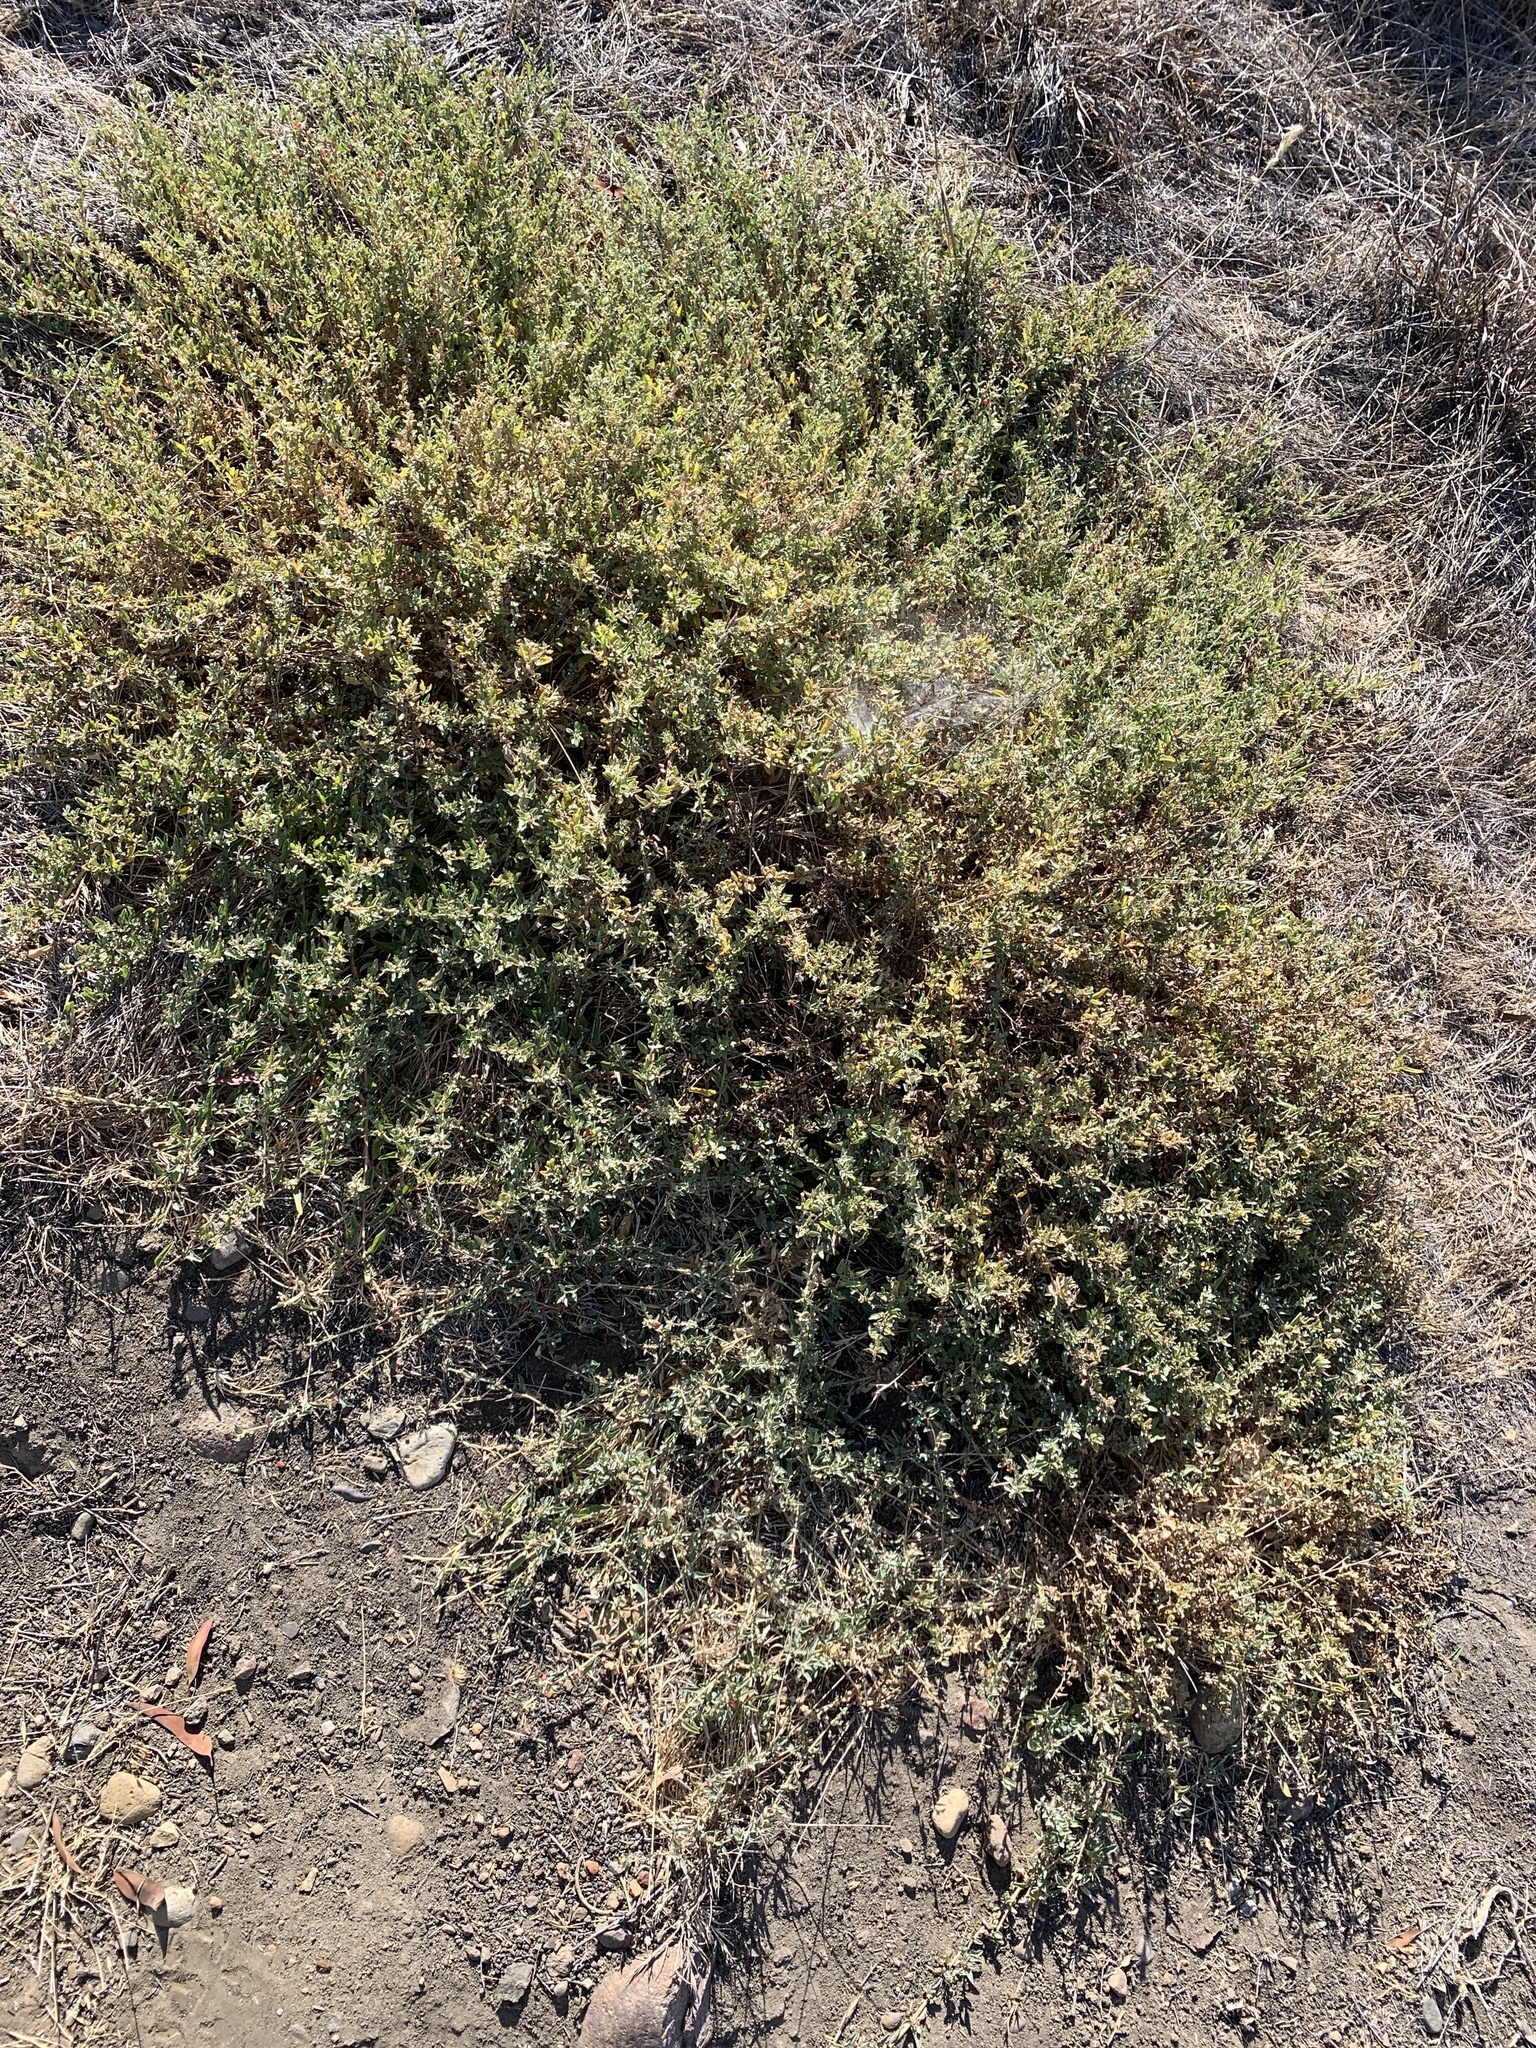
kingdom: Plantae
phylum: Tracheophyta
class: Magnoliopsida
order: Caryophyllales
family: Amaranthaceae
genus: Atriplex
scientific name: Atriplex semibaccata
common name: Australian saltbush
